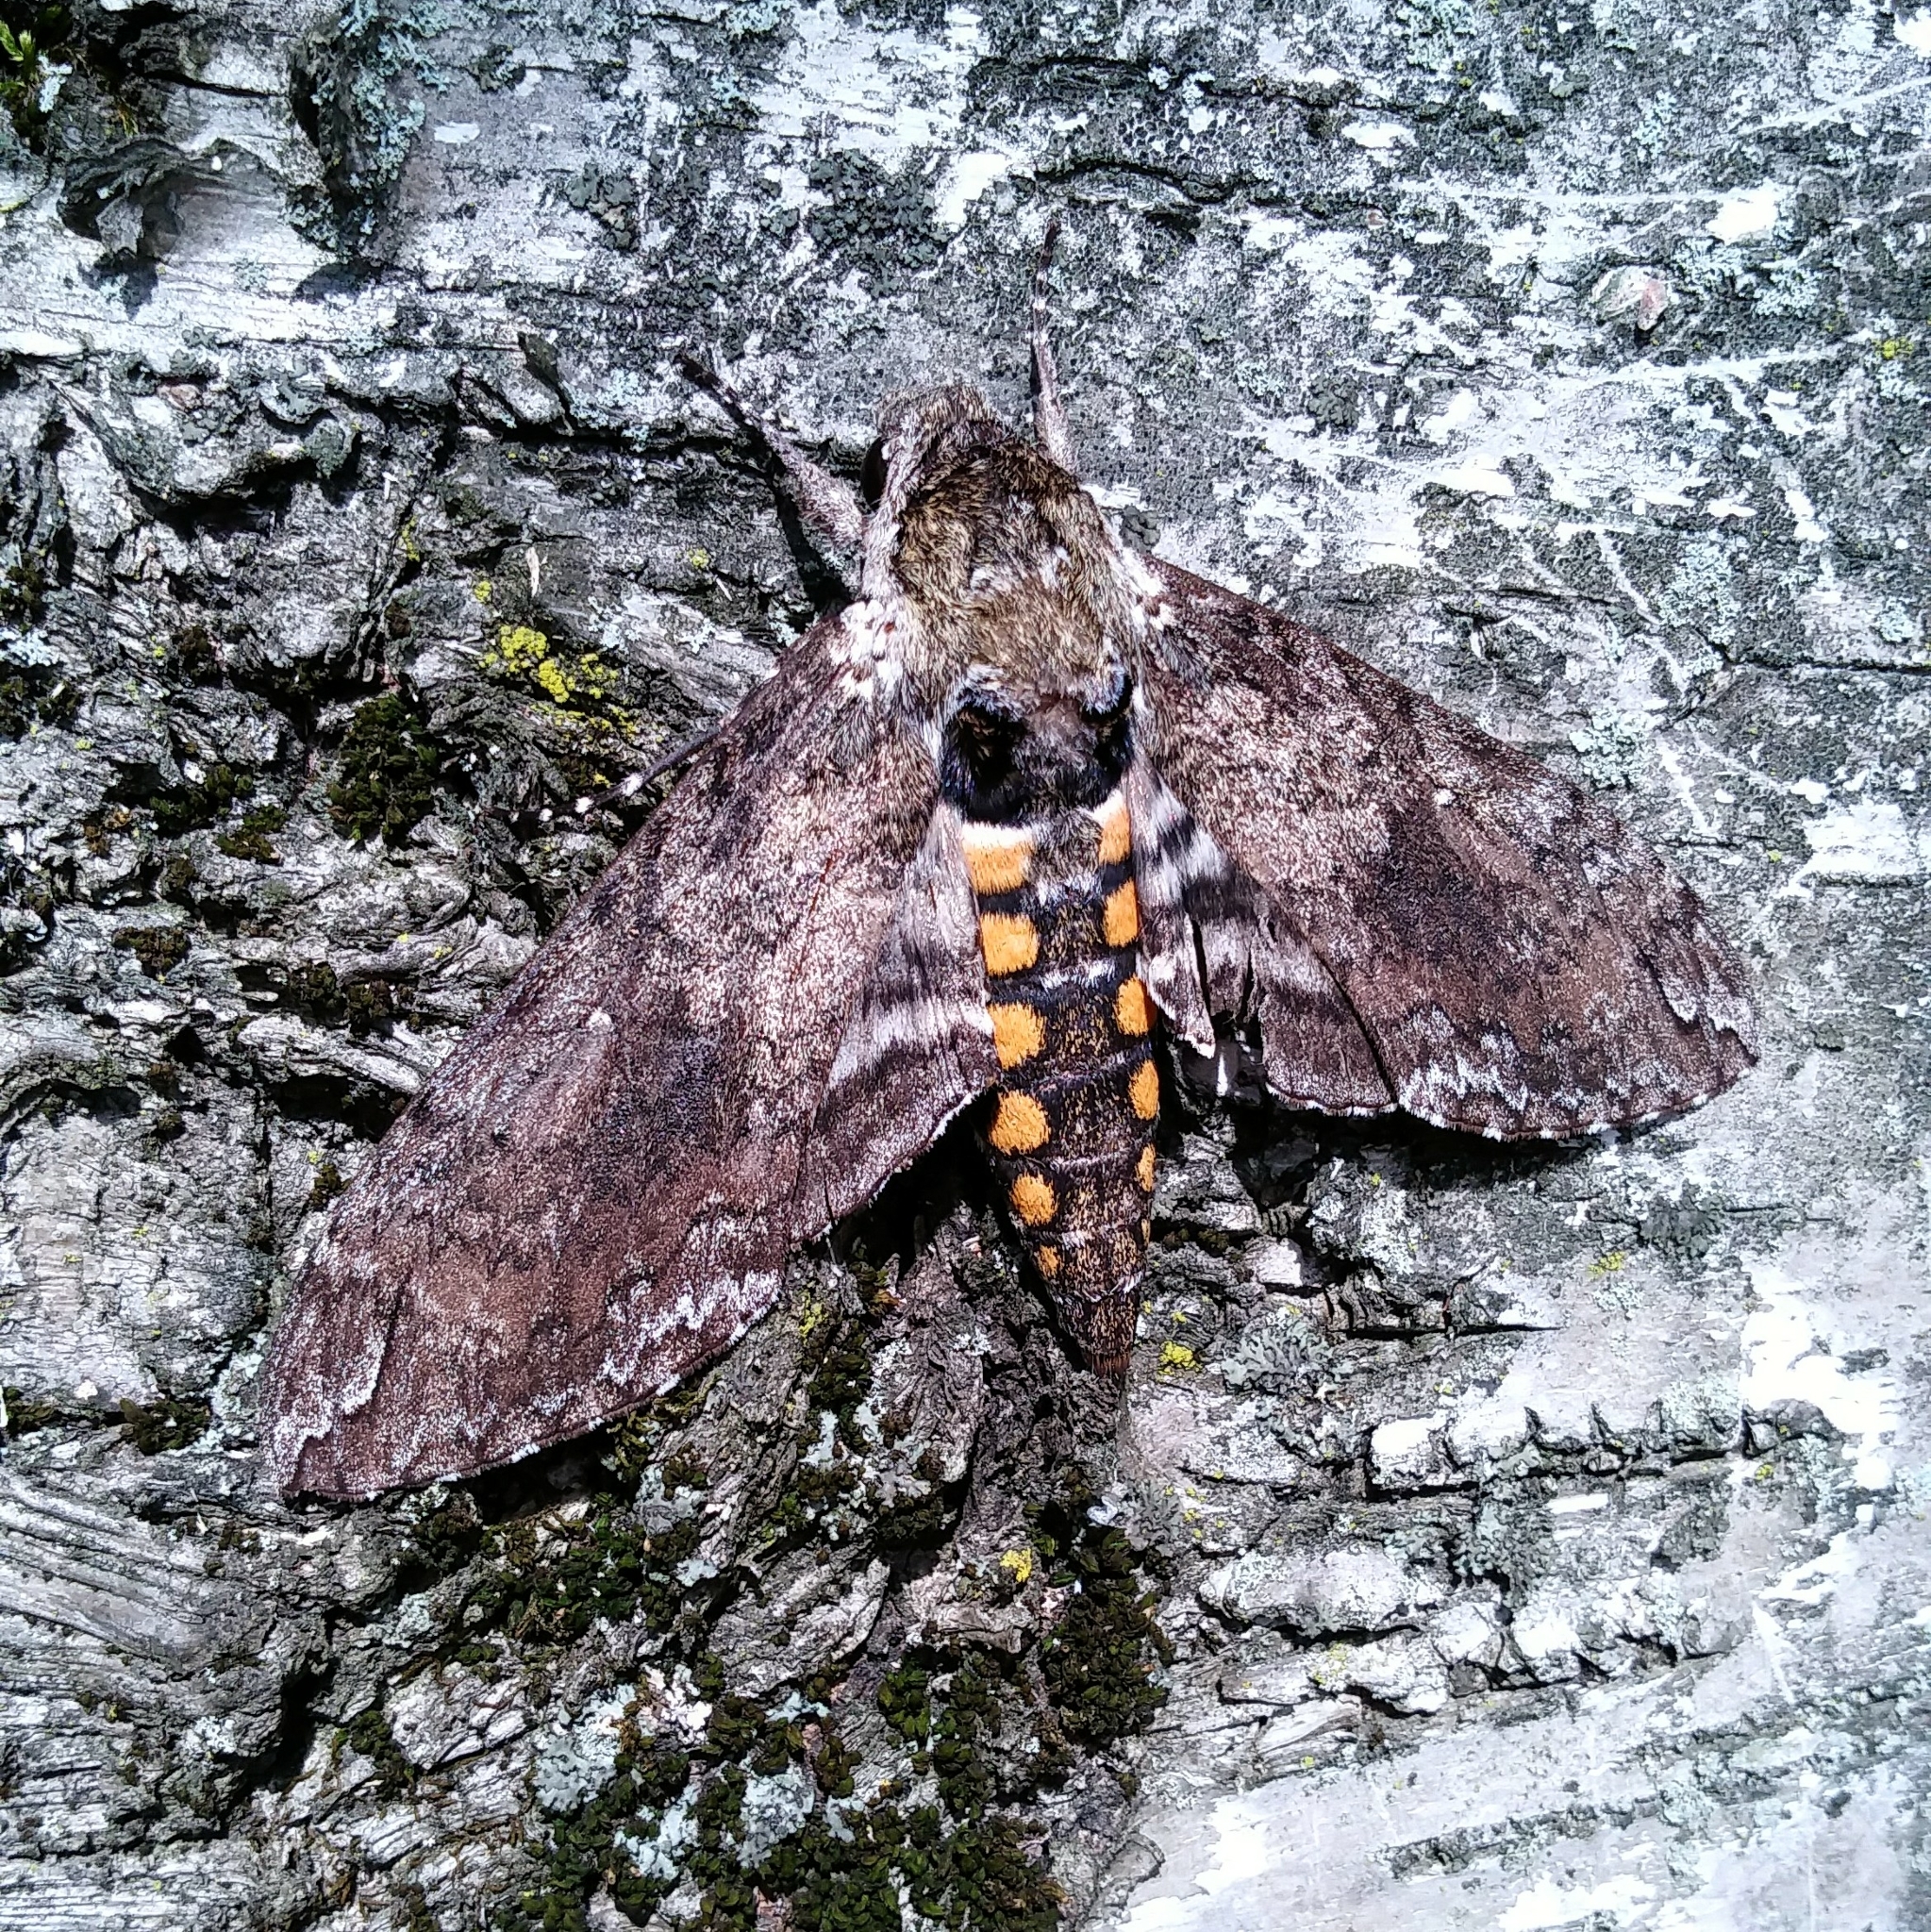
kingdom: Animalia
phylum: Arthropoda
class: Insecta
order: Lepidoptera
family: Sphingidae
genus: Manduca
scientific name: Manduca sexta
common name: Carolina sphinx
